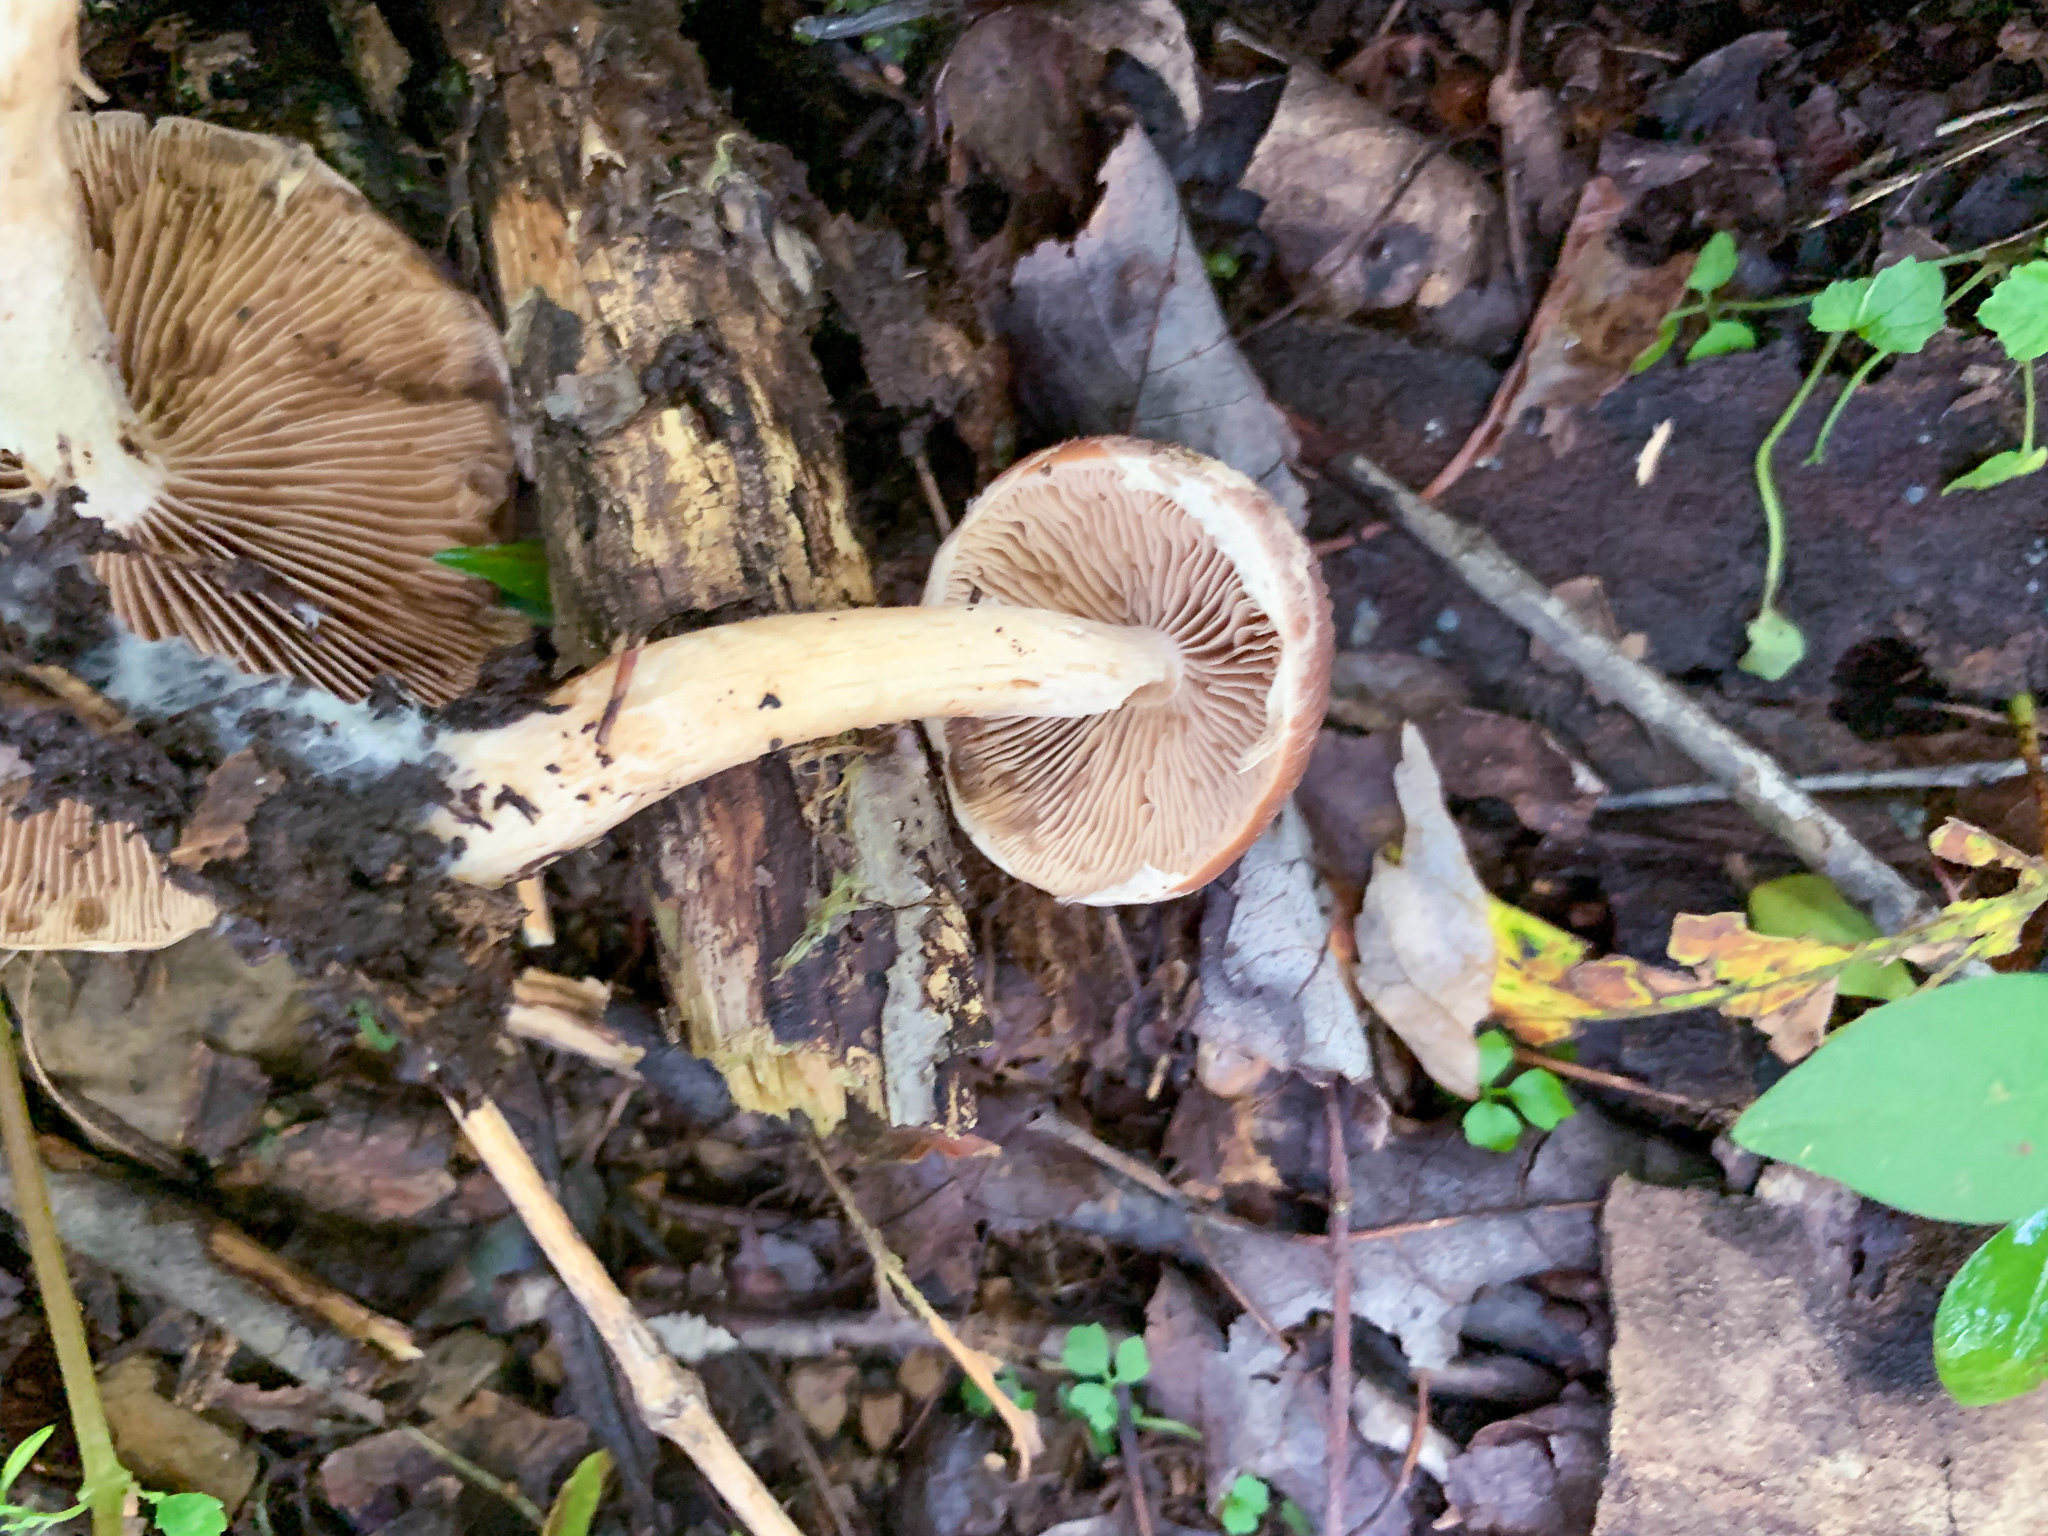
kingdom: Fungi
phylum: Basidiomycota
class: Agaricomycetes
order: Agaricales
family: Psathyrellaceae
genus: Typhrasa
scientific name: Typhrasa gossypina
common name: Wrinkled psathyrella
